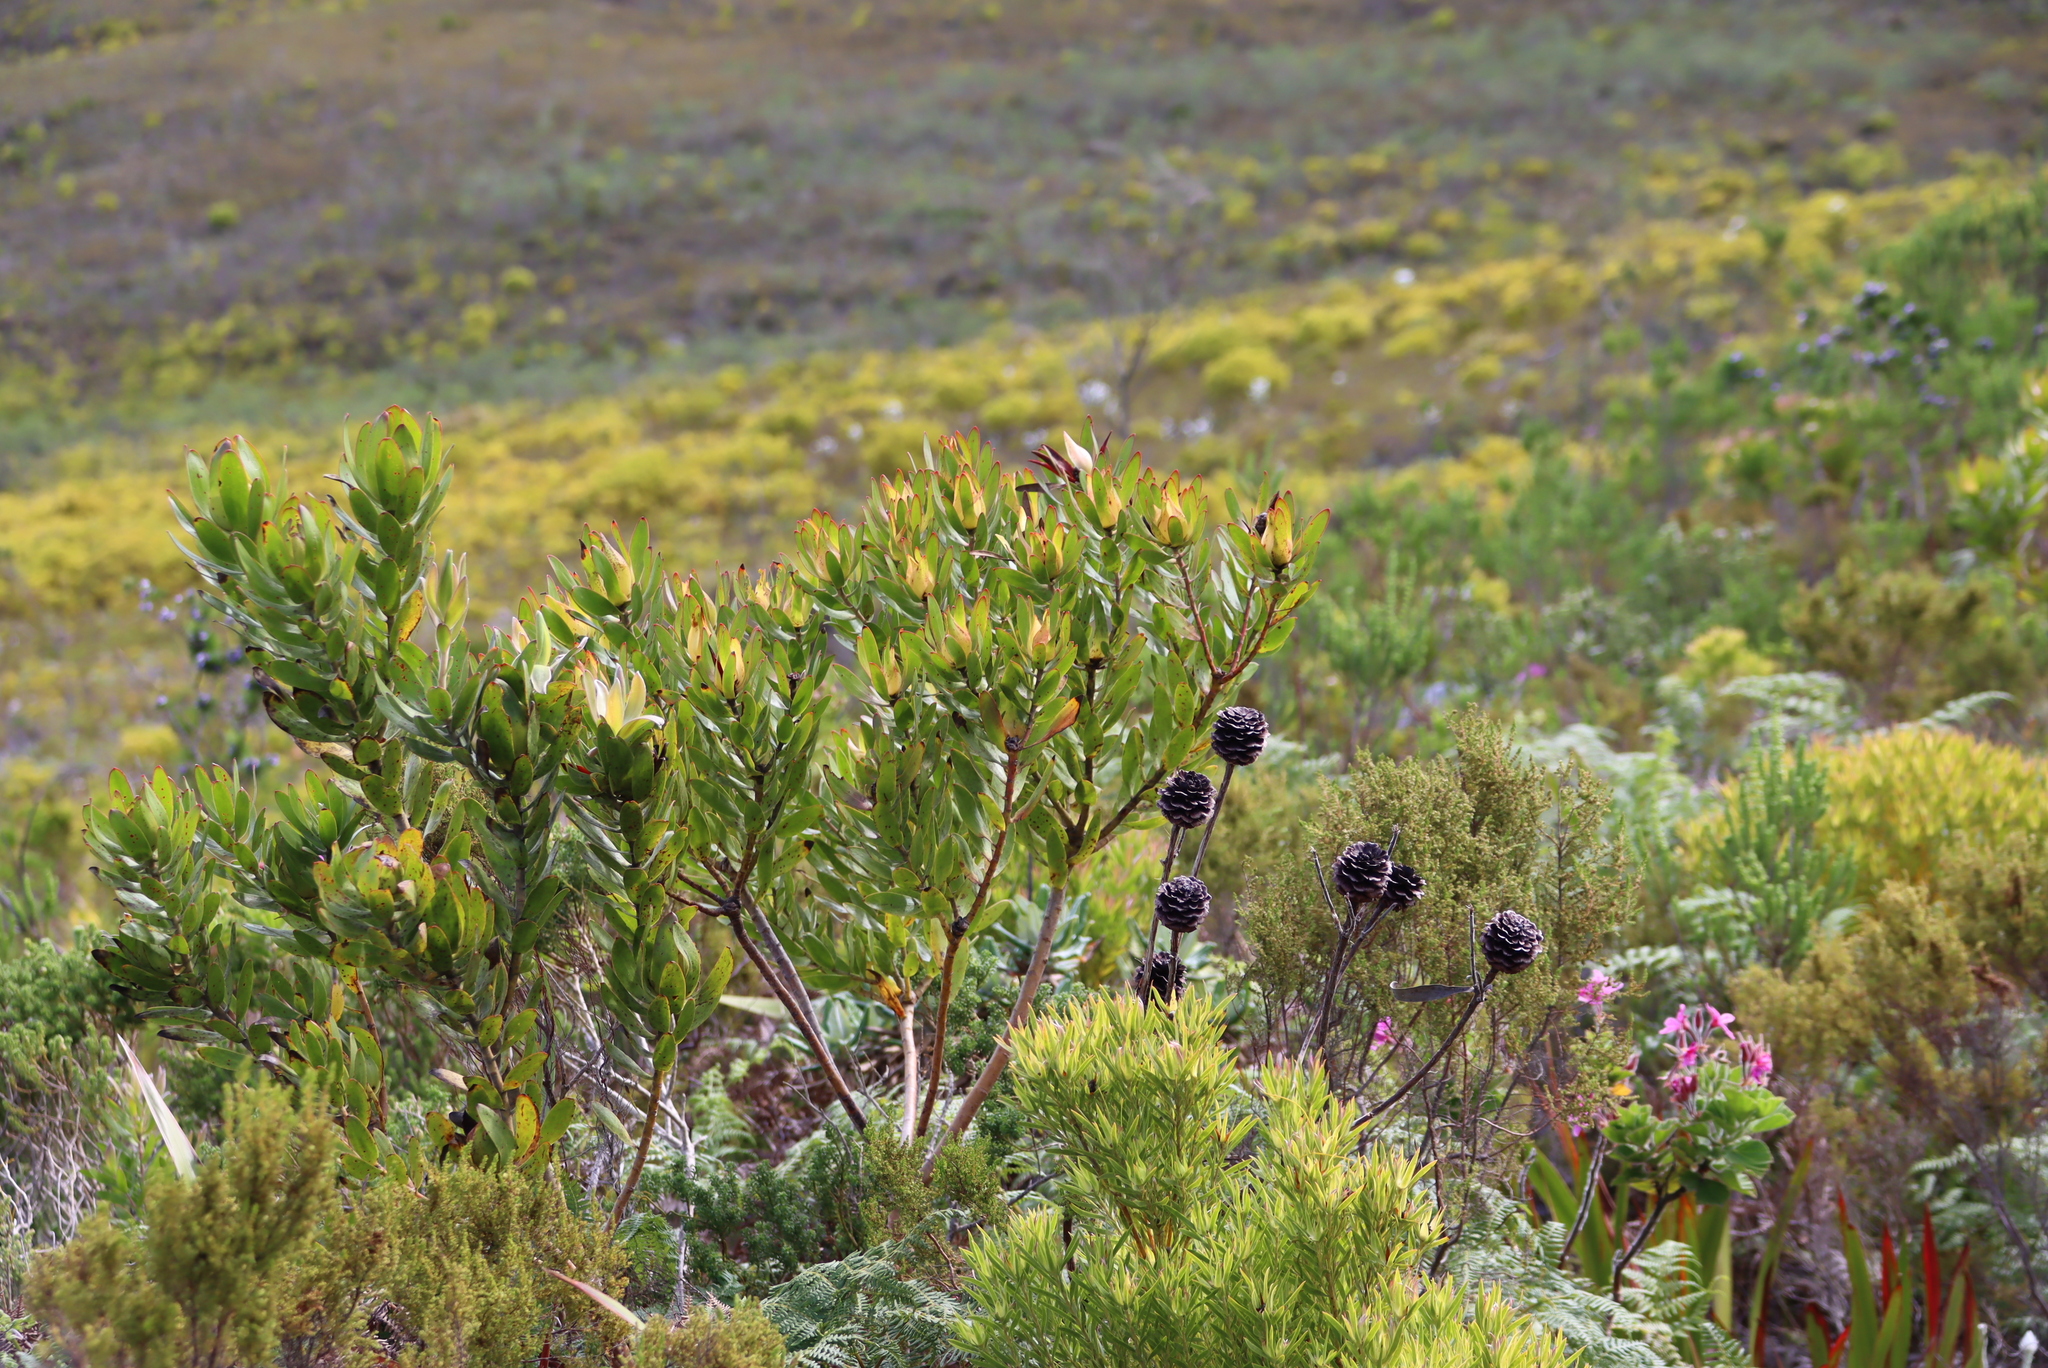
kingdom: Plantae
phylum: Tracheophyta
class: Magnoliopsida
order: Proteales
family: Proteaceae
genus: Leucadendron
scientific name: Leucadendron laureolum
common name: Golden sunshinebush
